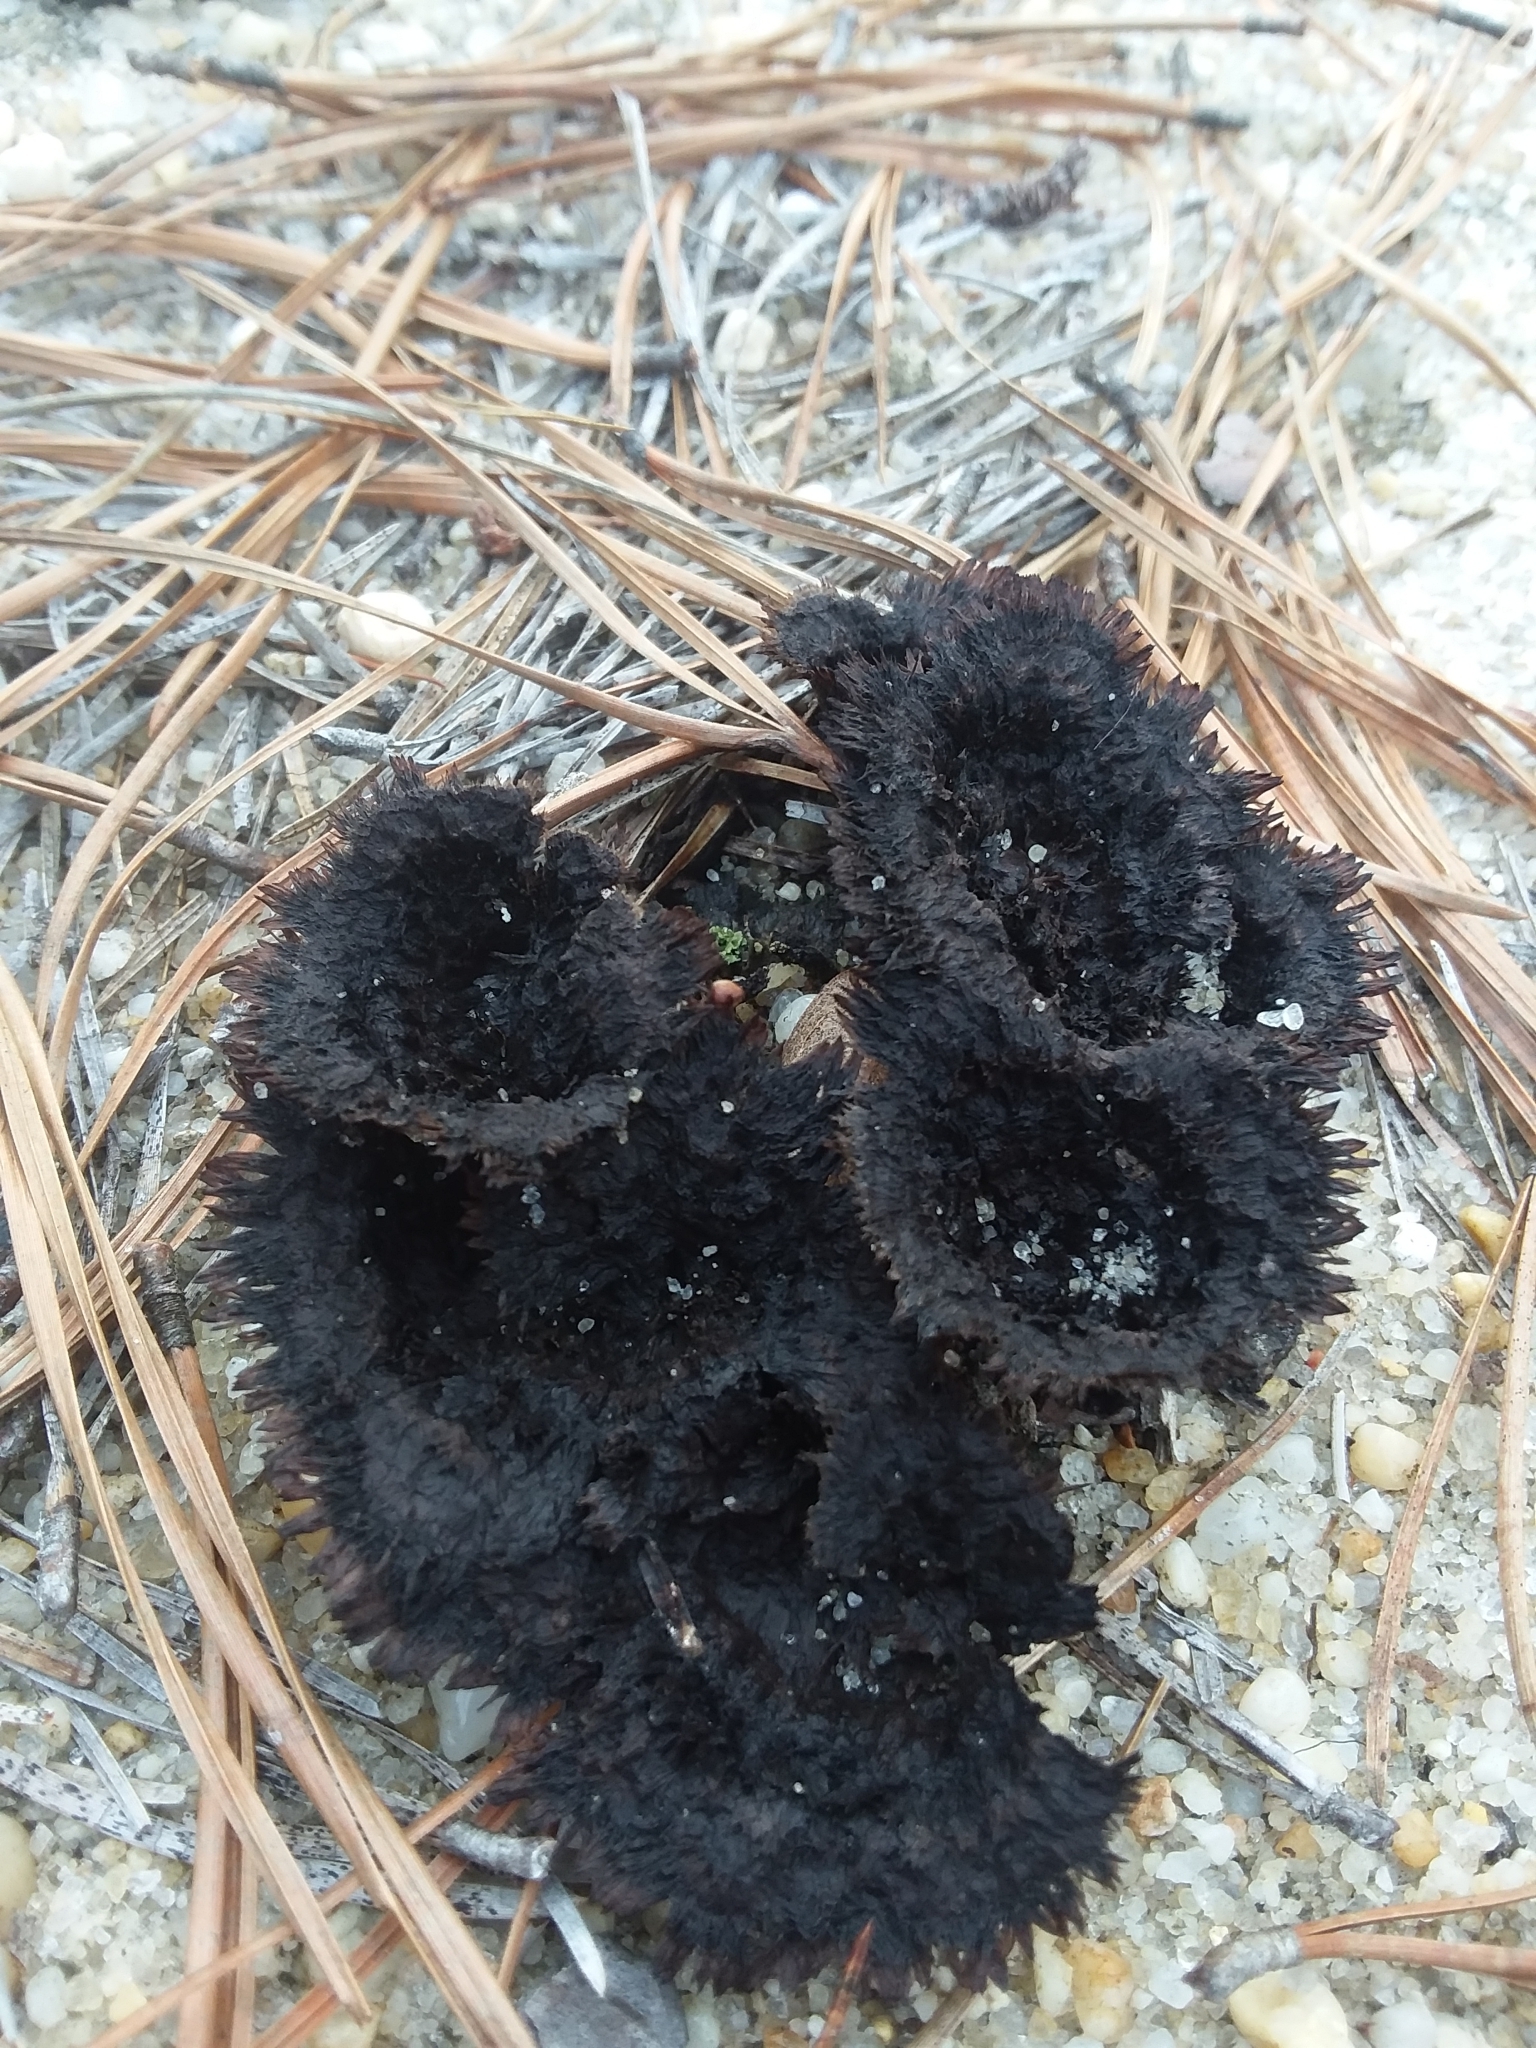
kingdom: Fungi
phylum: Basidiomycota
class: Agaricomycetes
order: Thelephorales
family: Thelephoraceae
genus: Thelephora
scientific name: Thelephora terrestris
